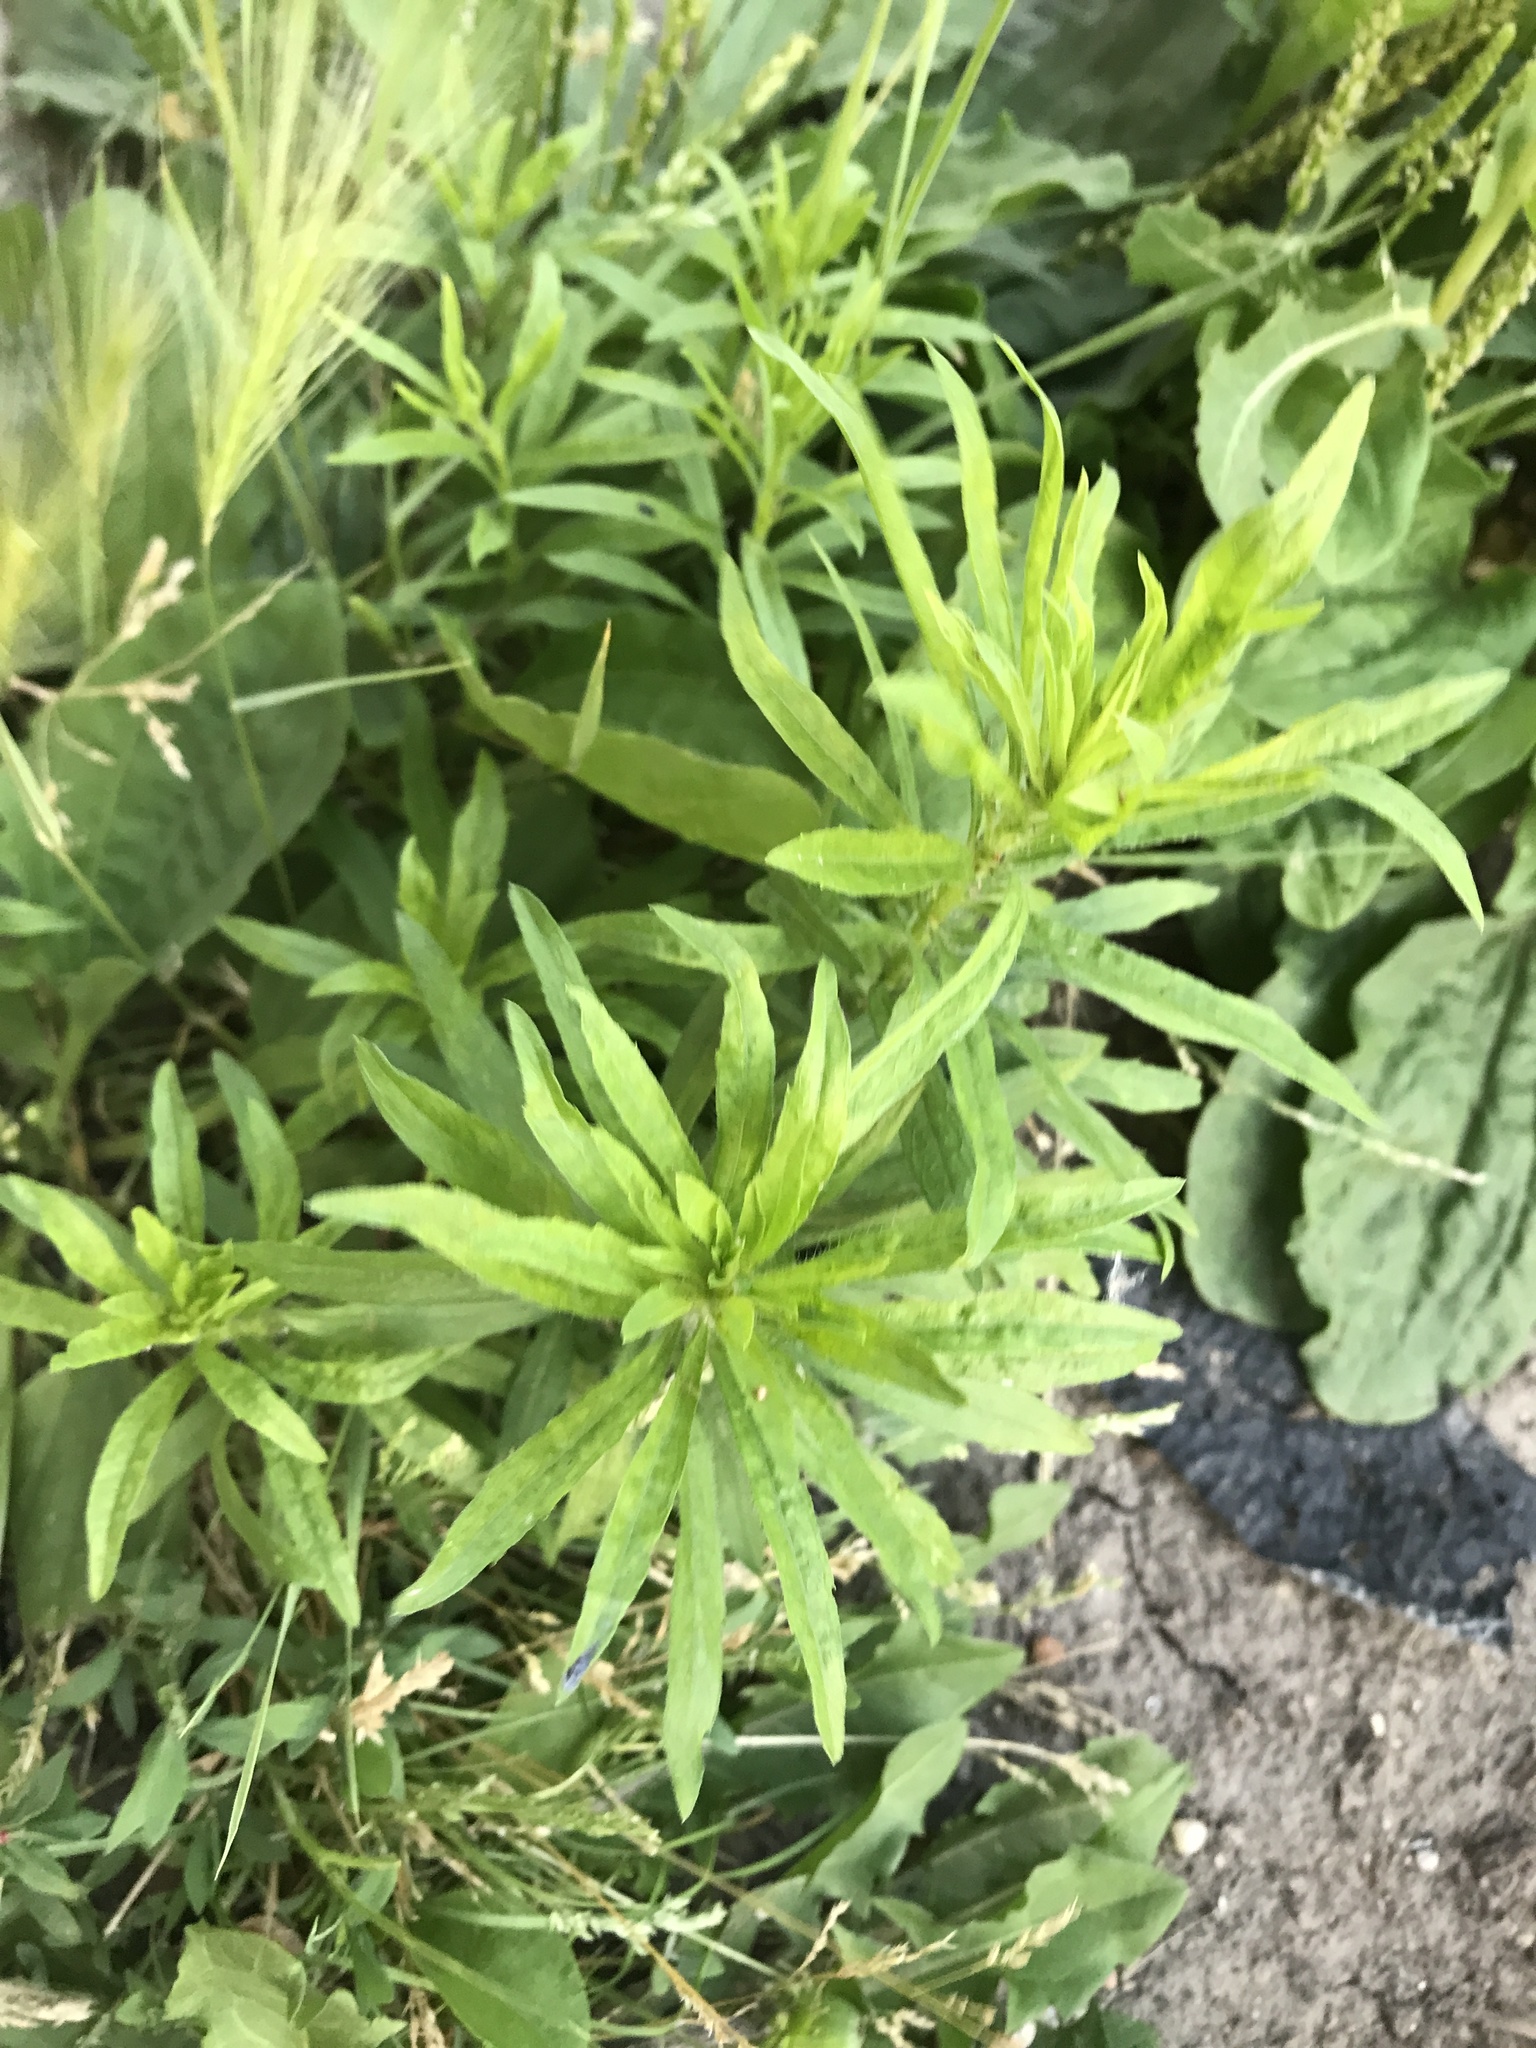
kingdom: Plantae
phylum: Tracheophyta
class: Magnoliopsida
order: Asterales
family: Asteraceae
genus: Erigeron
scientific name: Erigeron canadensis
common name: Canadian fleabane
